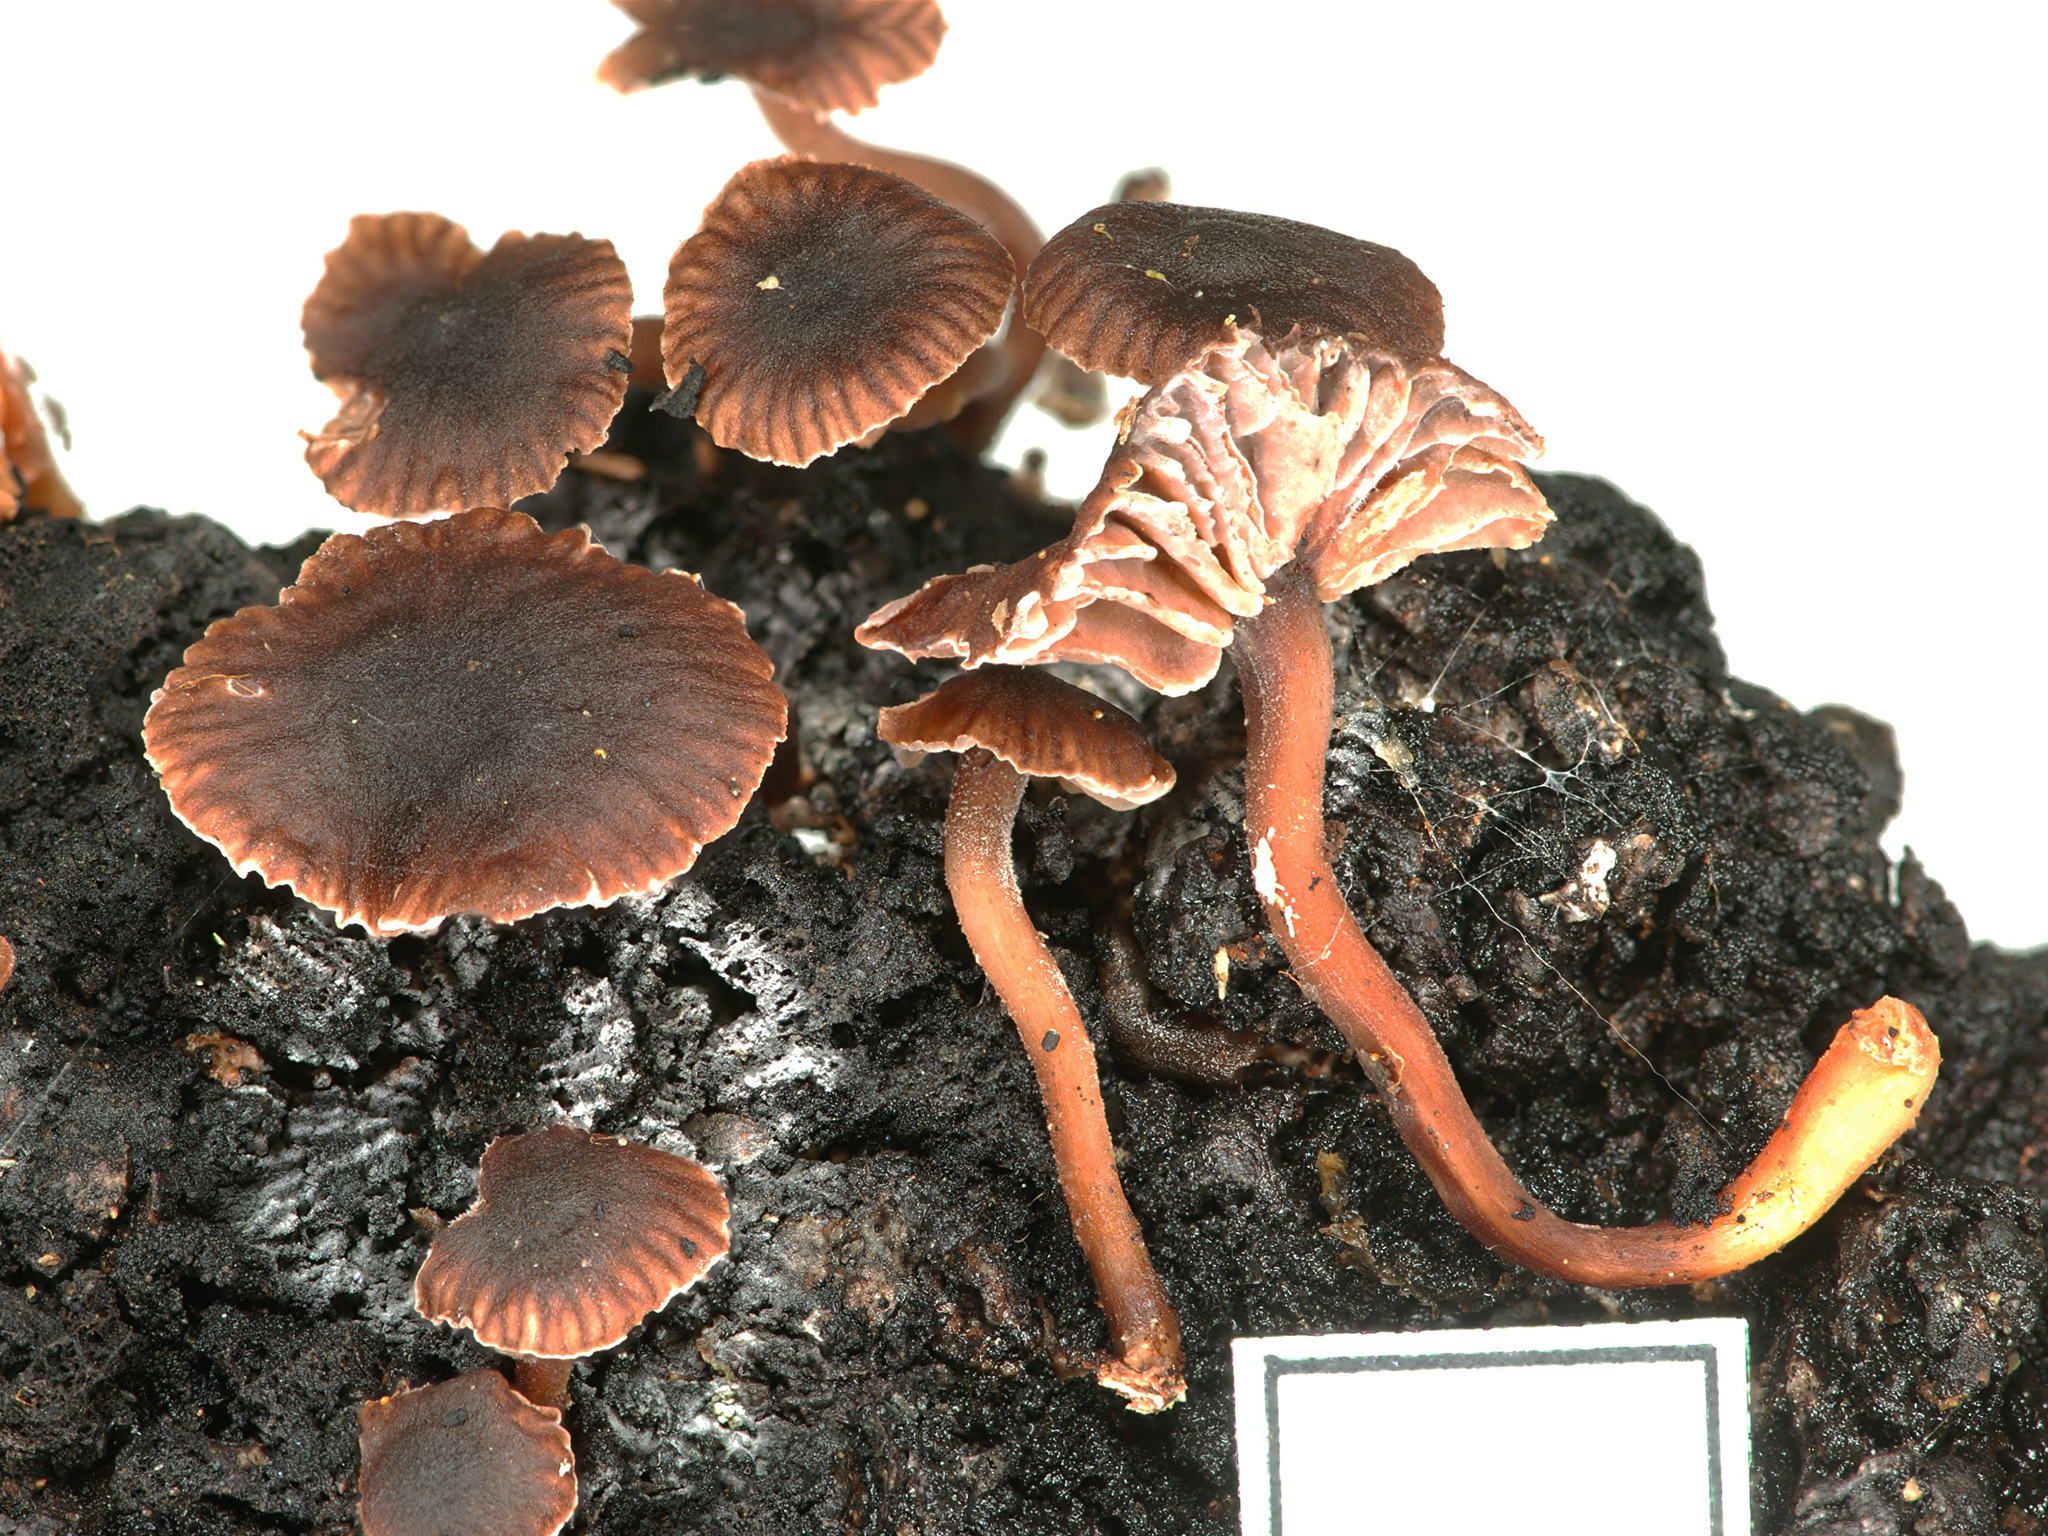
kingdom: Fungi
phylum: Basidiomycota
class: Agaricomycetes
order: Agaricales
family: Omphalotaceae
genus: Gymnopus
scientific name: Gymnopus hakaroa
